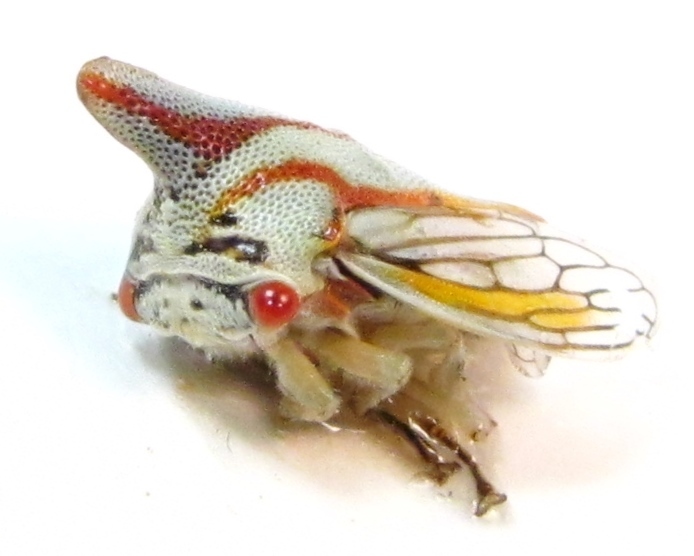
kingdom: Animalia
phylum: Arthropoda
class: Insecta
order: Hemiptera
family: Membracidae
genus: Platycotis
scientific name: Platycotis vittatus
